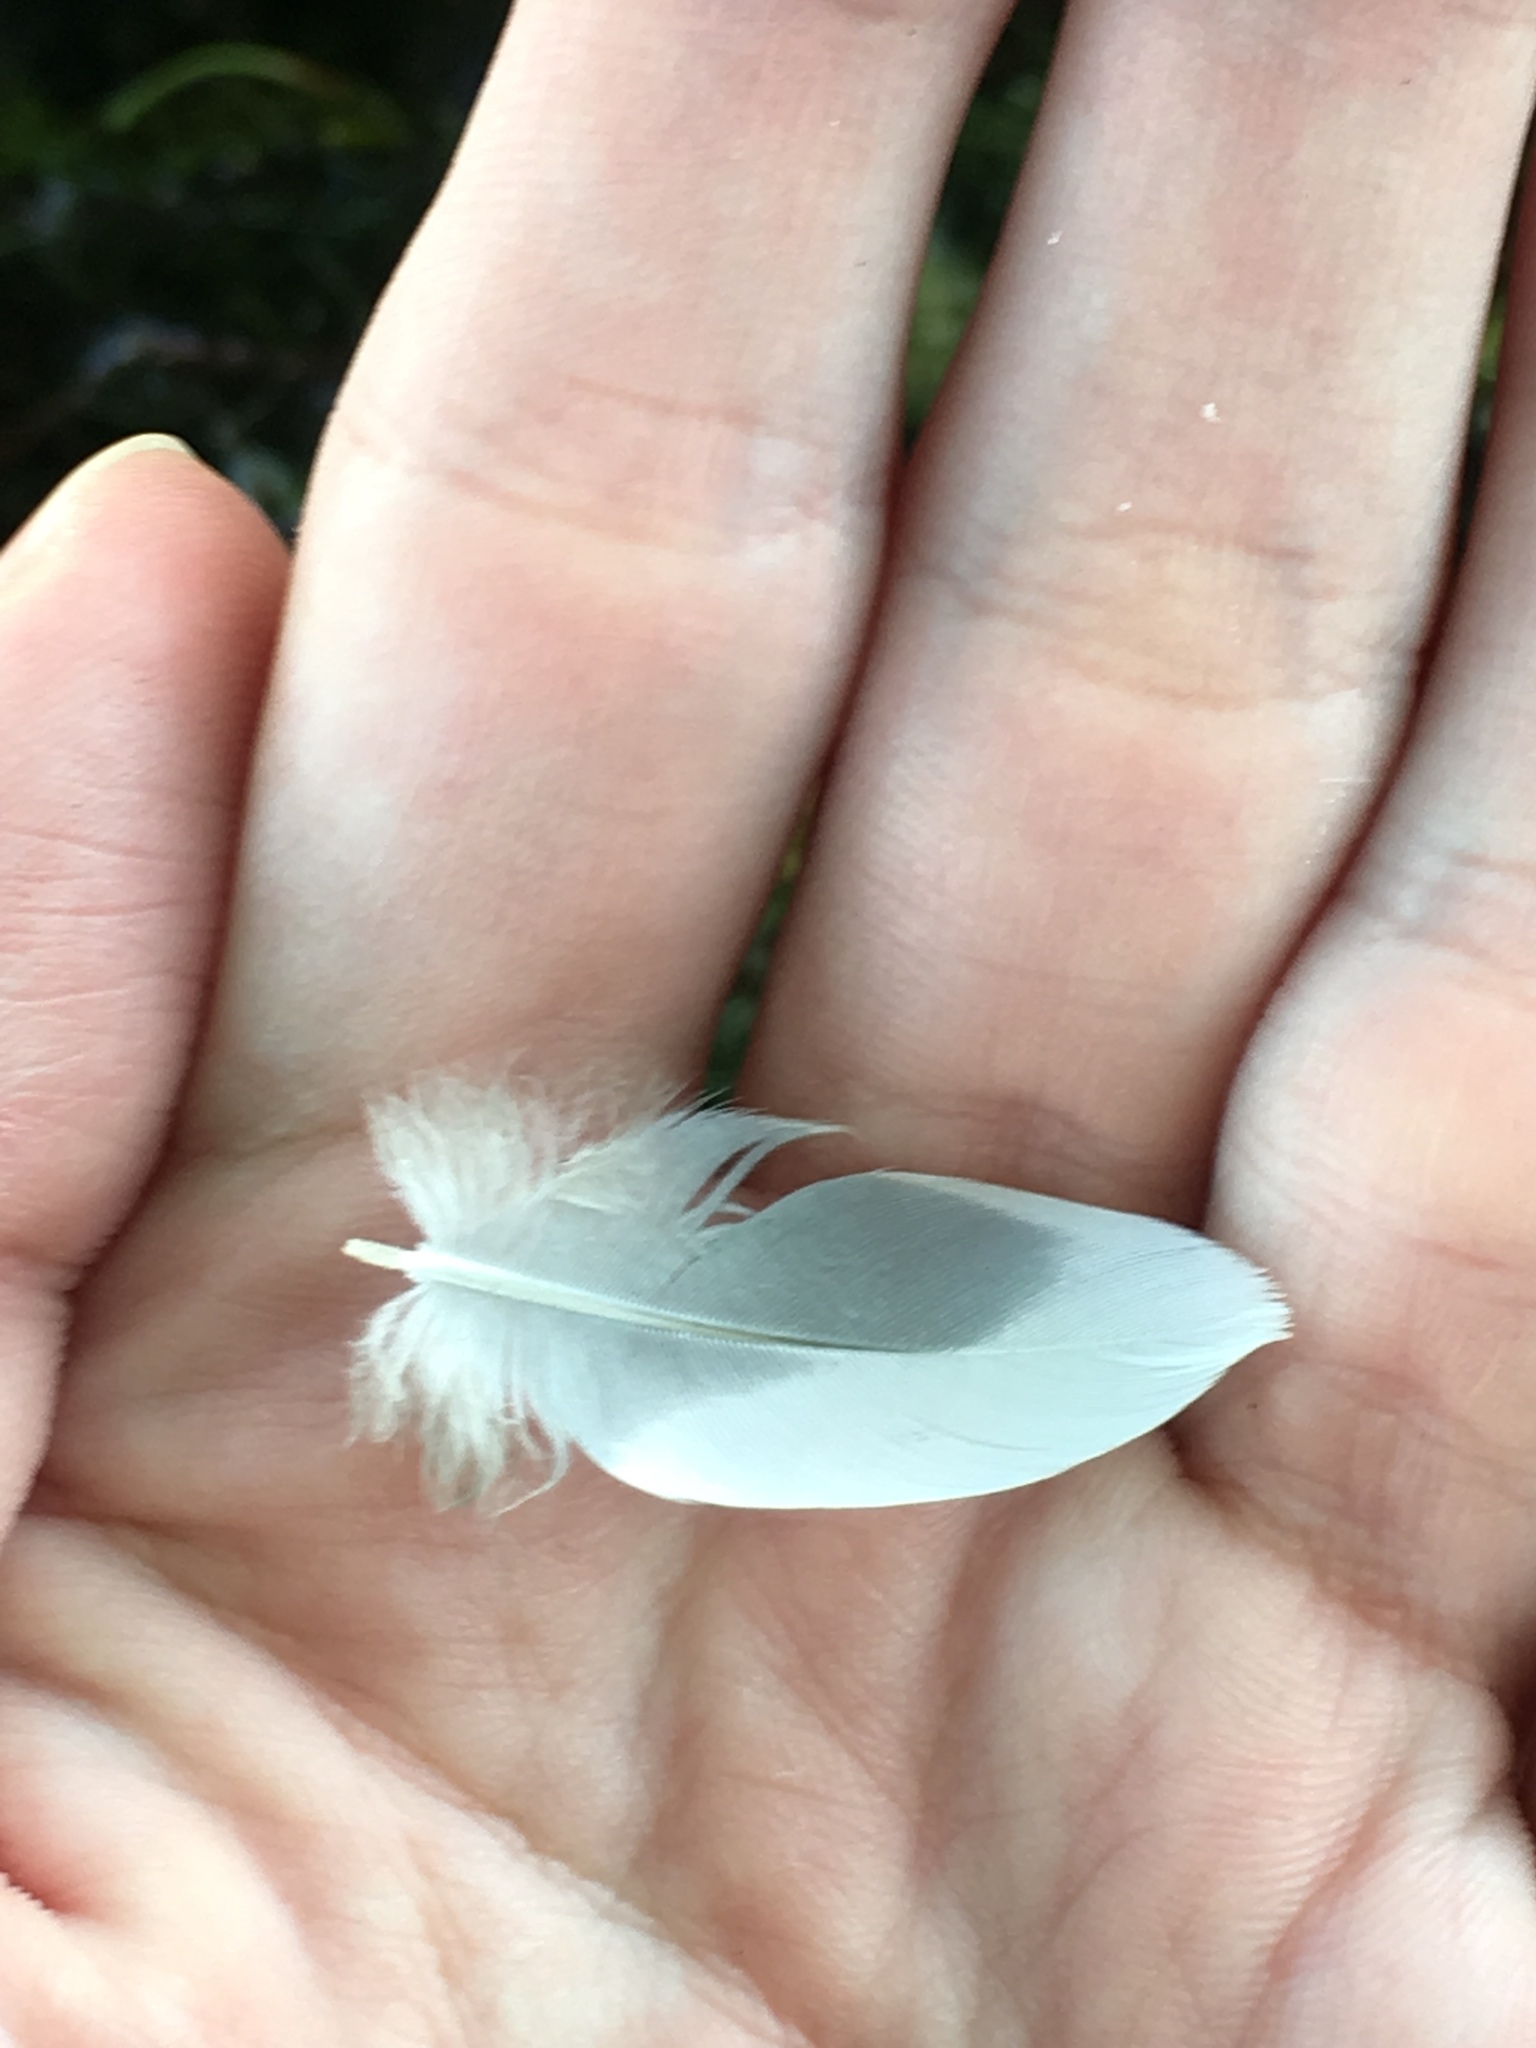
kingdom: Animalia
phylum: Chordata
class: Aves
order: Columbiformes
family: Columbidae
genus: Zenaida
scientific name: Zenaida asiatica
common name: White-winged dove
